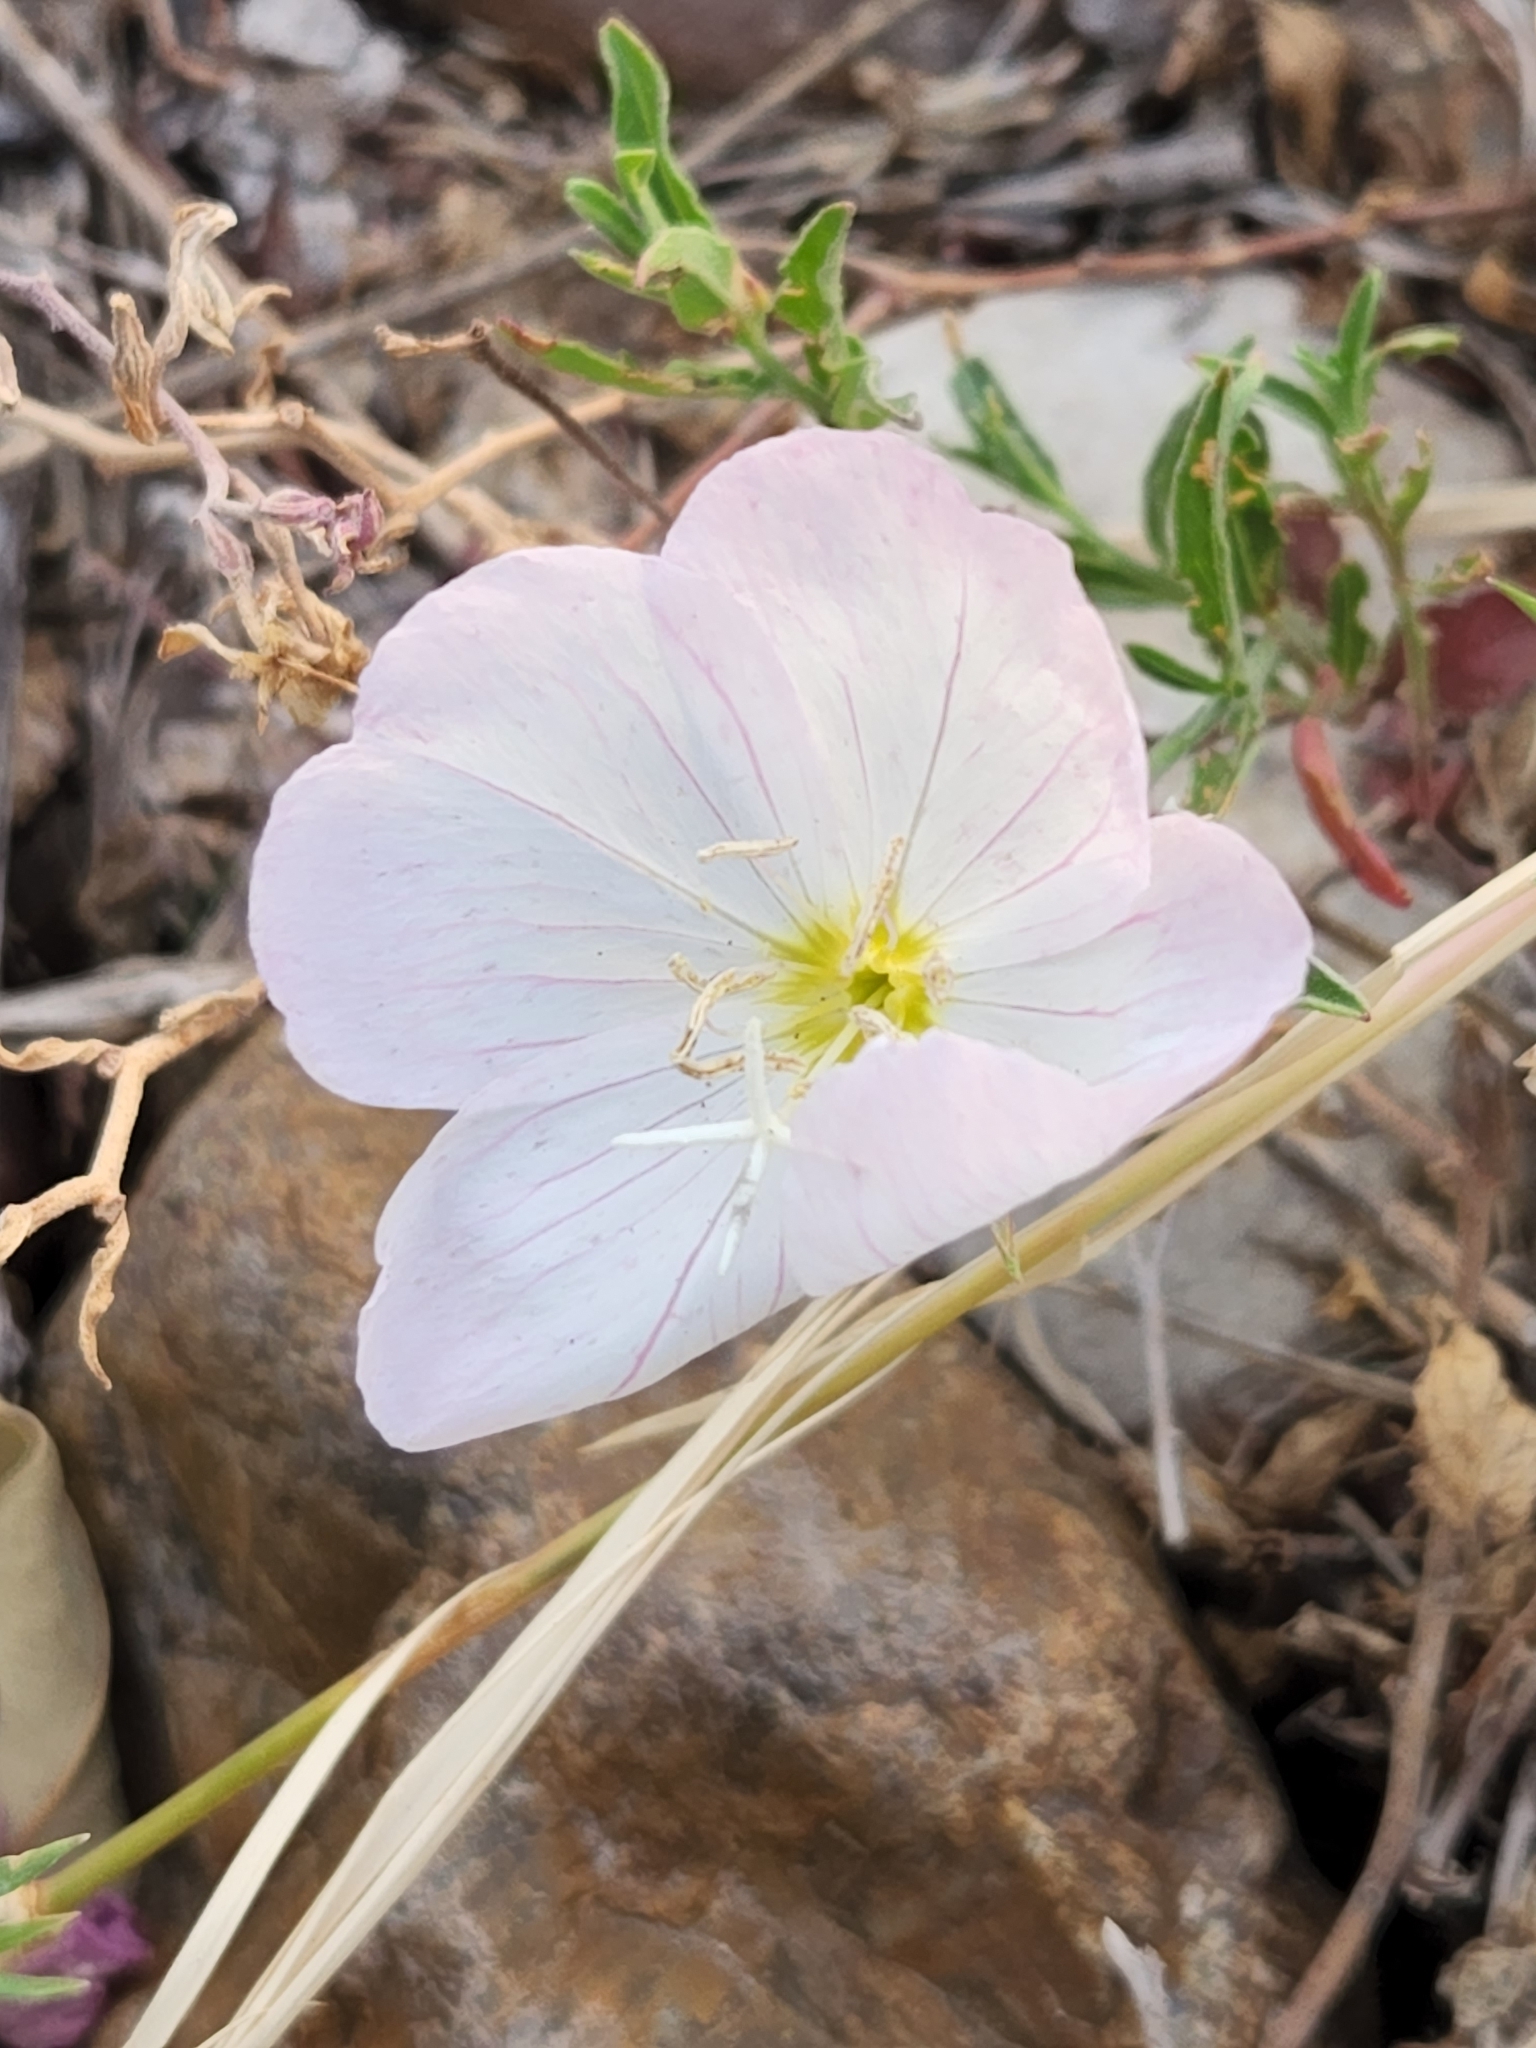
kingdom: Plantae
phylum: Tracheophyta
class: Magnoliopsida
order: Myrtales
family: Onagraceae
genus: Oenothera
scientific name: Oenothera speciosa
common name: White evening-primrose
